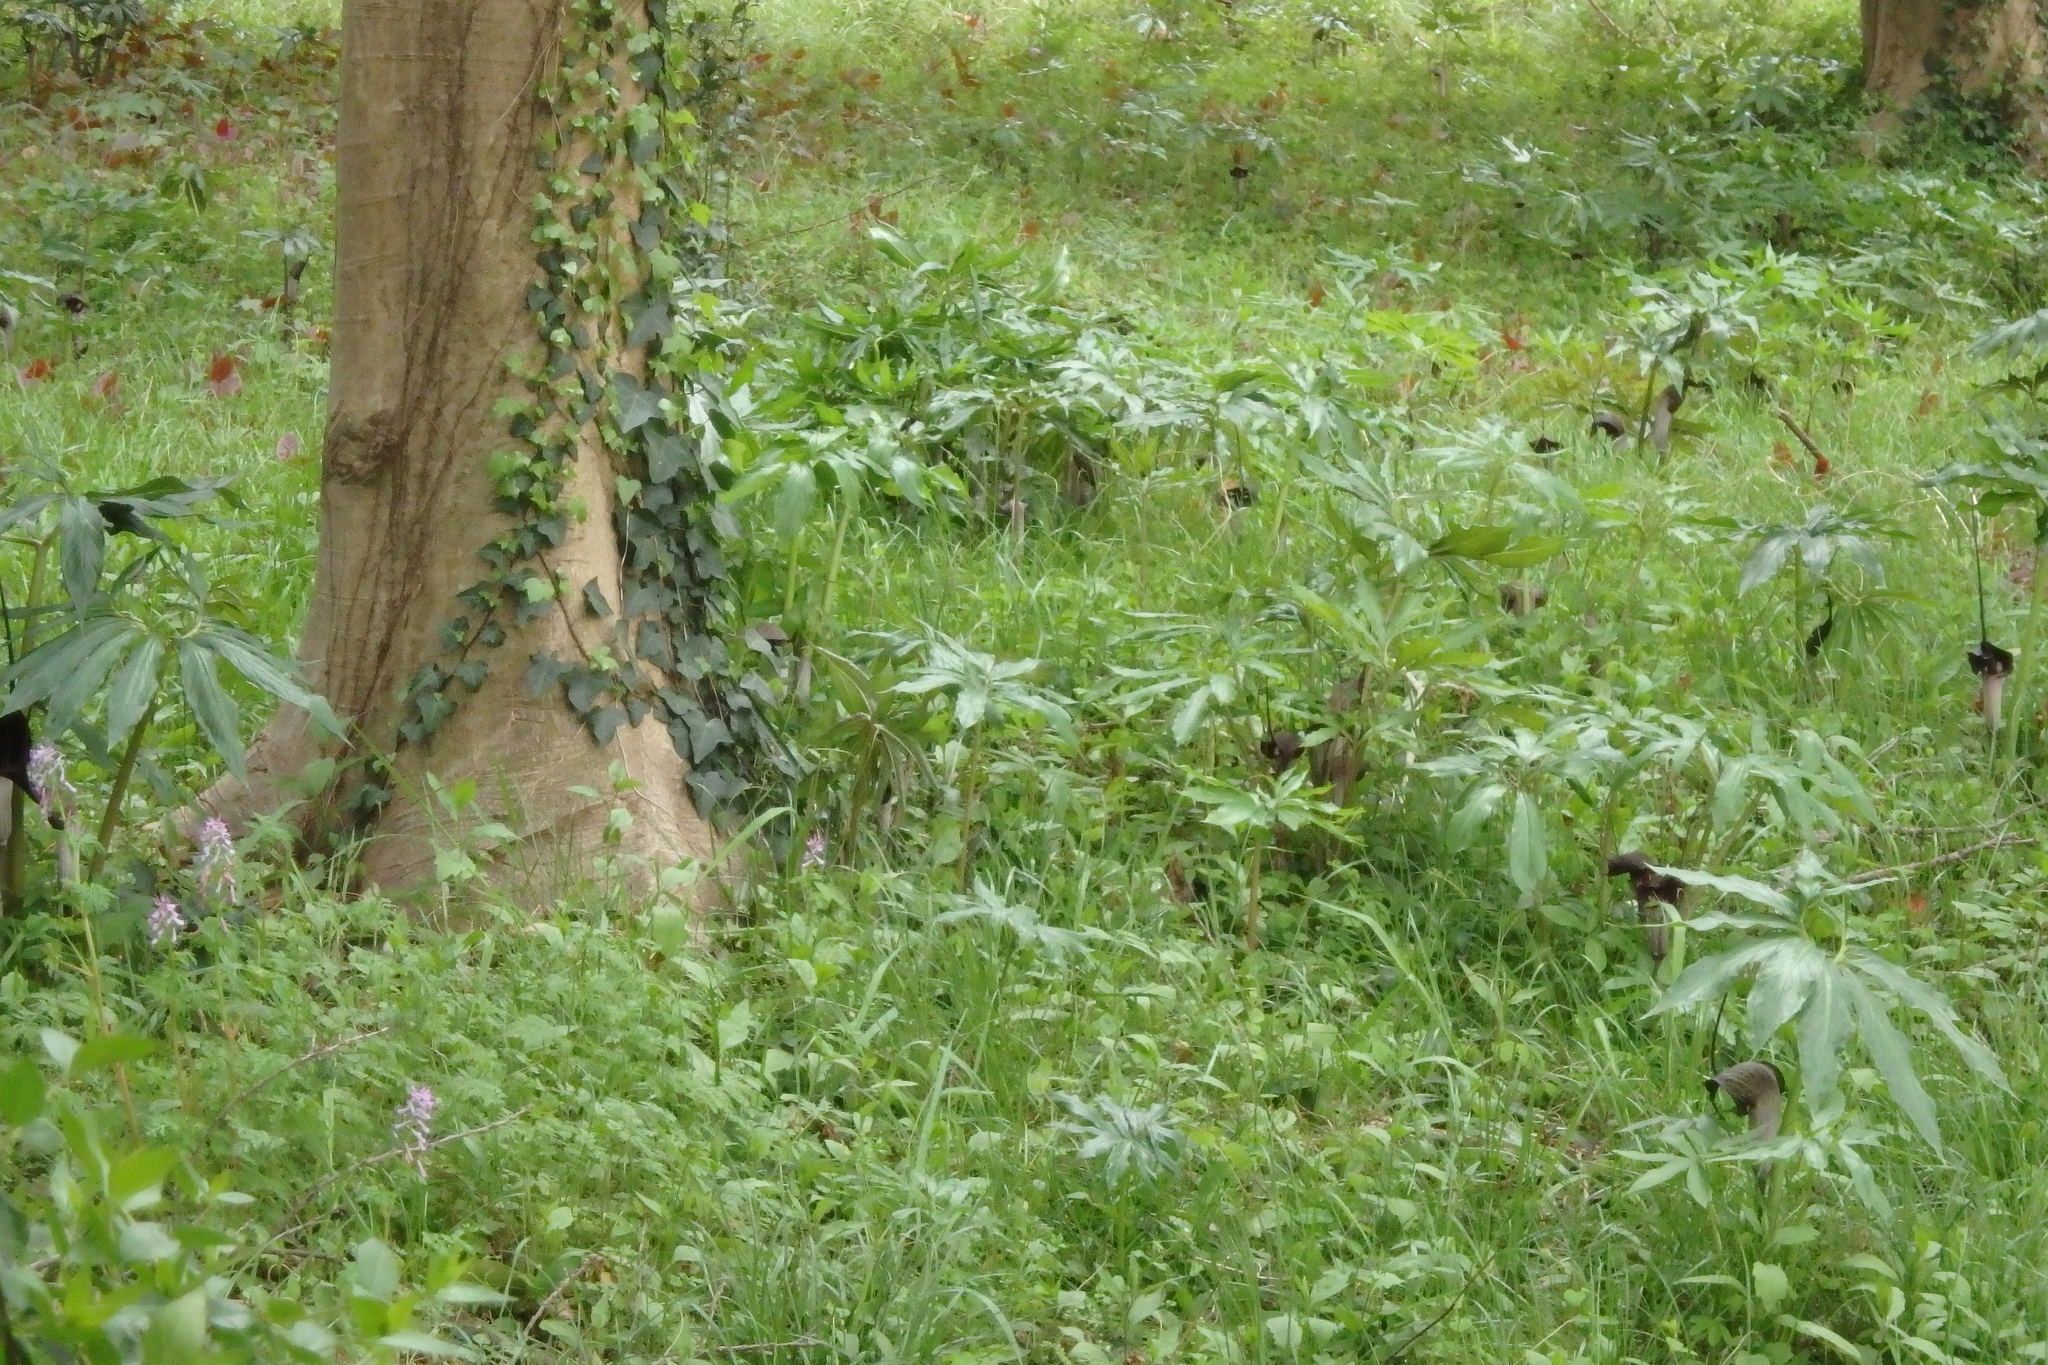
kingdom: Plantae
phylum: Tracheophyta
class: Liliopsida
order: Alismatales
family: Araceae
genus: Arisaema
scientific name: Arisaema thunbergii
